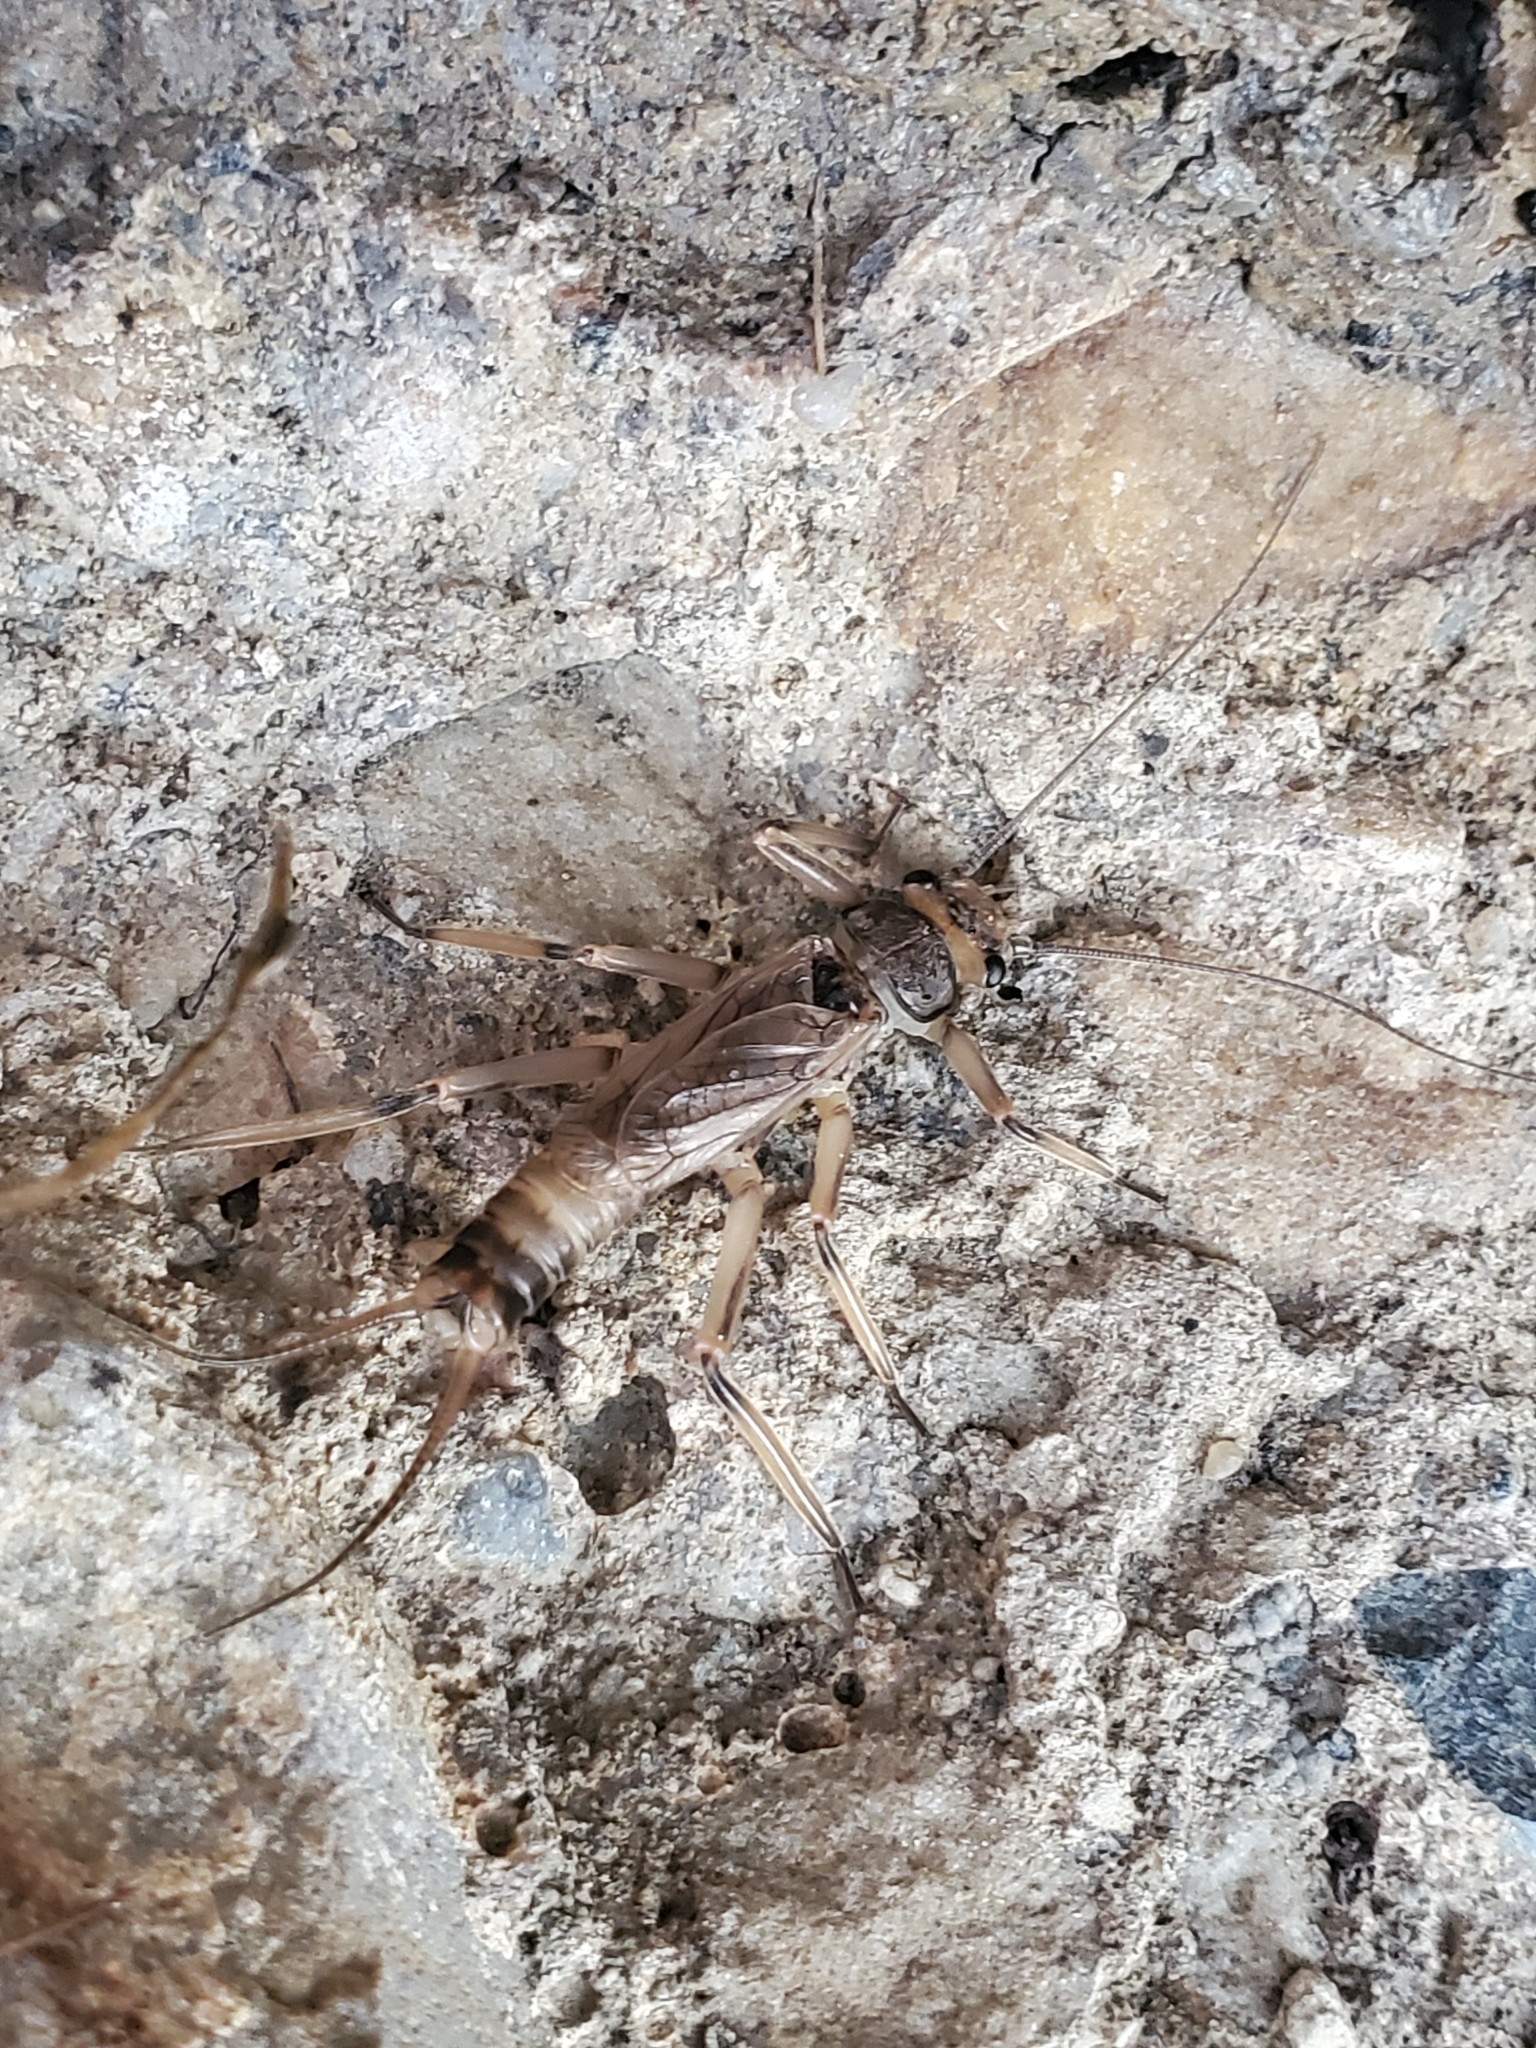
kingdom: Animalia
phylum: Arthropoda
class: Insecta
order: Plecoptera
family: Perlidae
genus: Claassenia
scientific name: Claassenia sabulosa
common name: Shortwing stone
